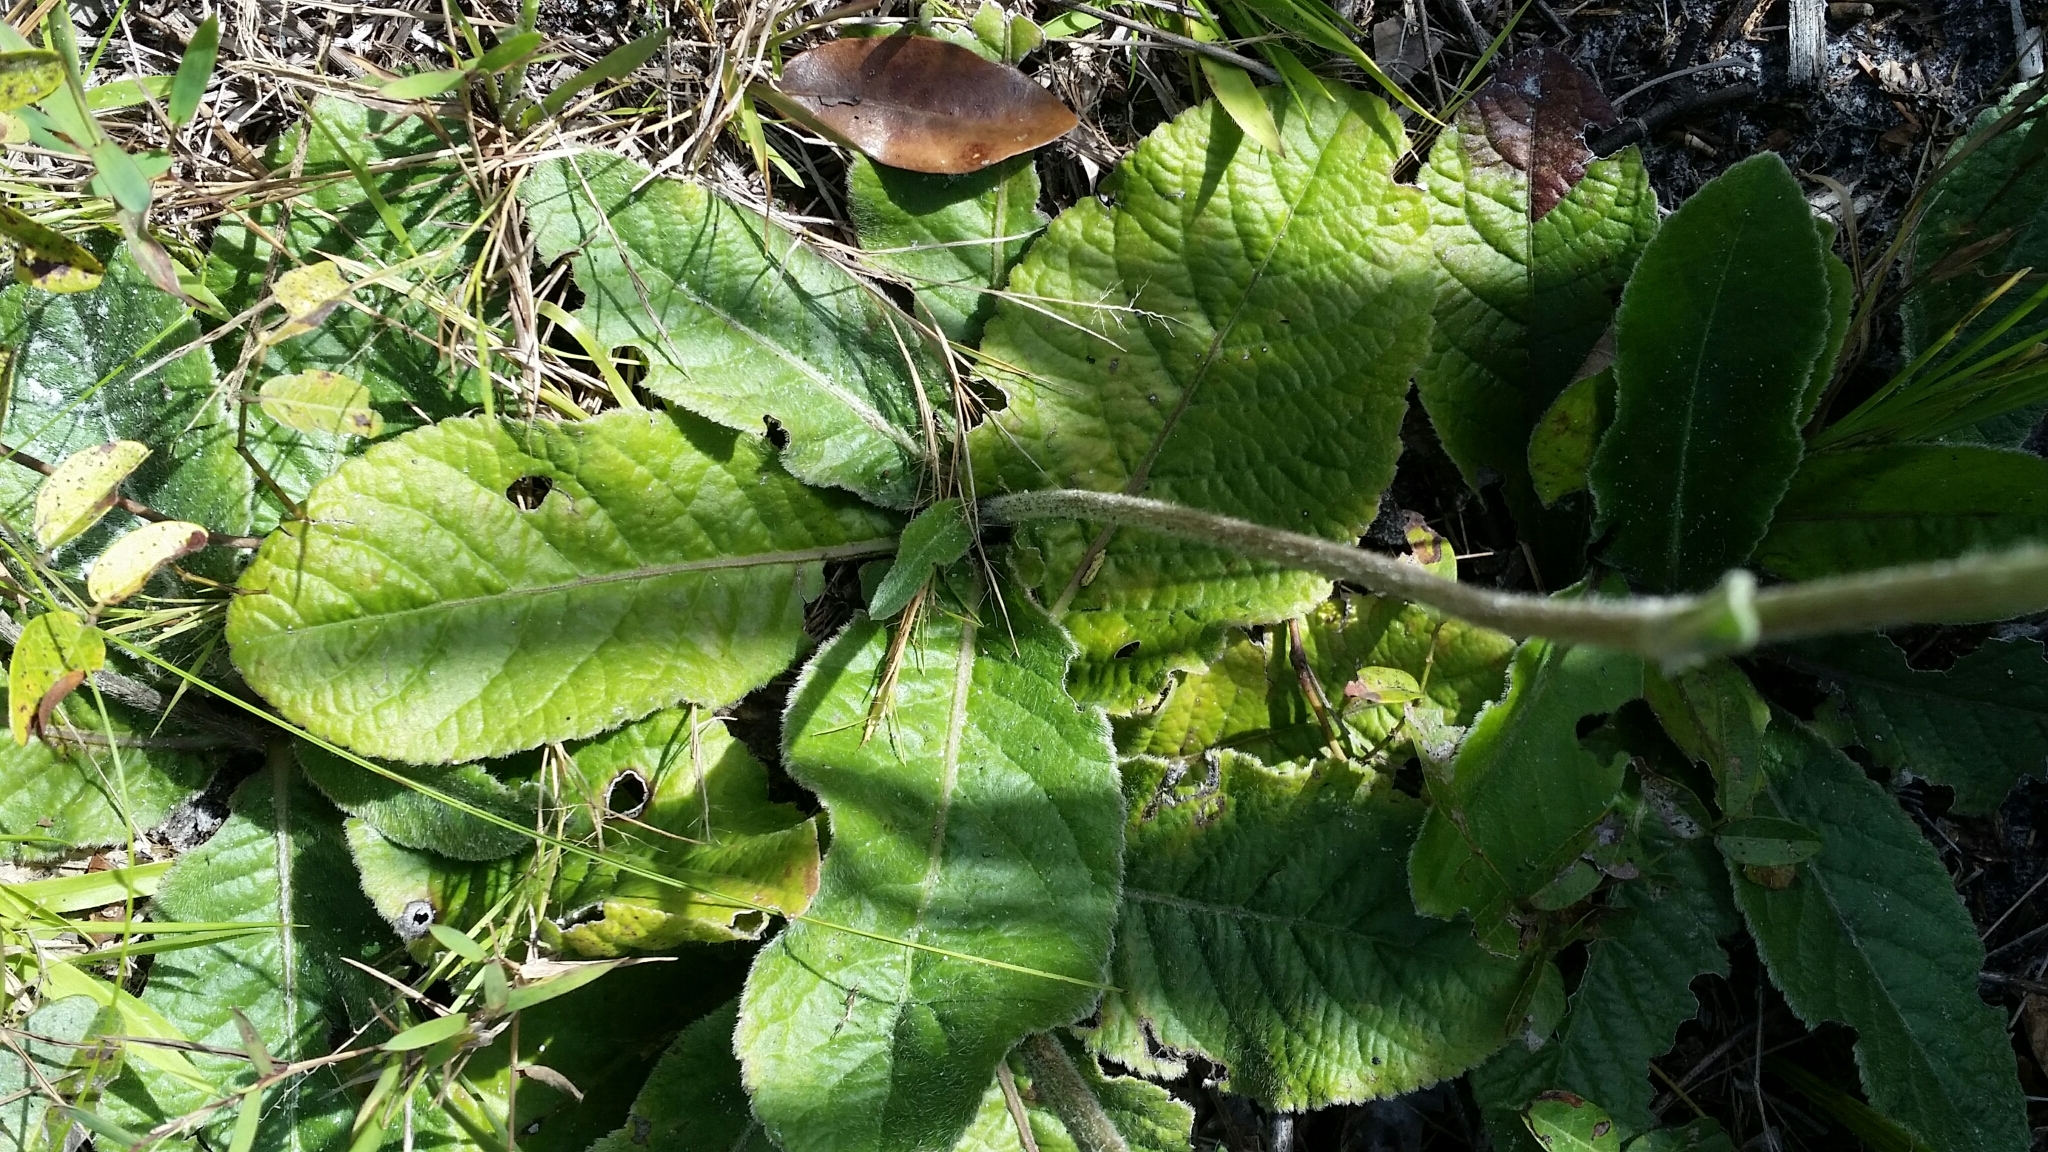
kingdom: Plantae
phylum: Tracheophyta
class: Magnoliopsida
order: Asterales
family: Asteraceae
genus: Elephantopus
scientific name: Elephantopus elatus
